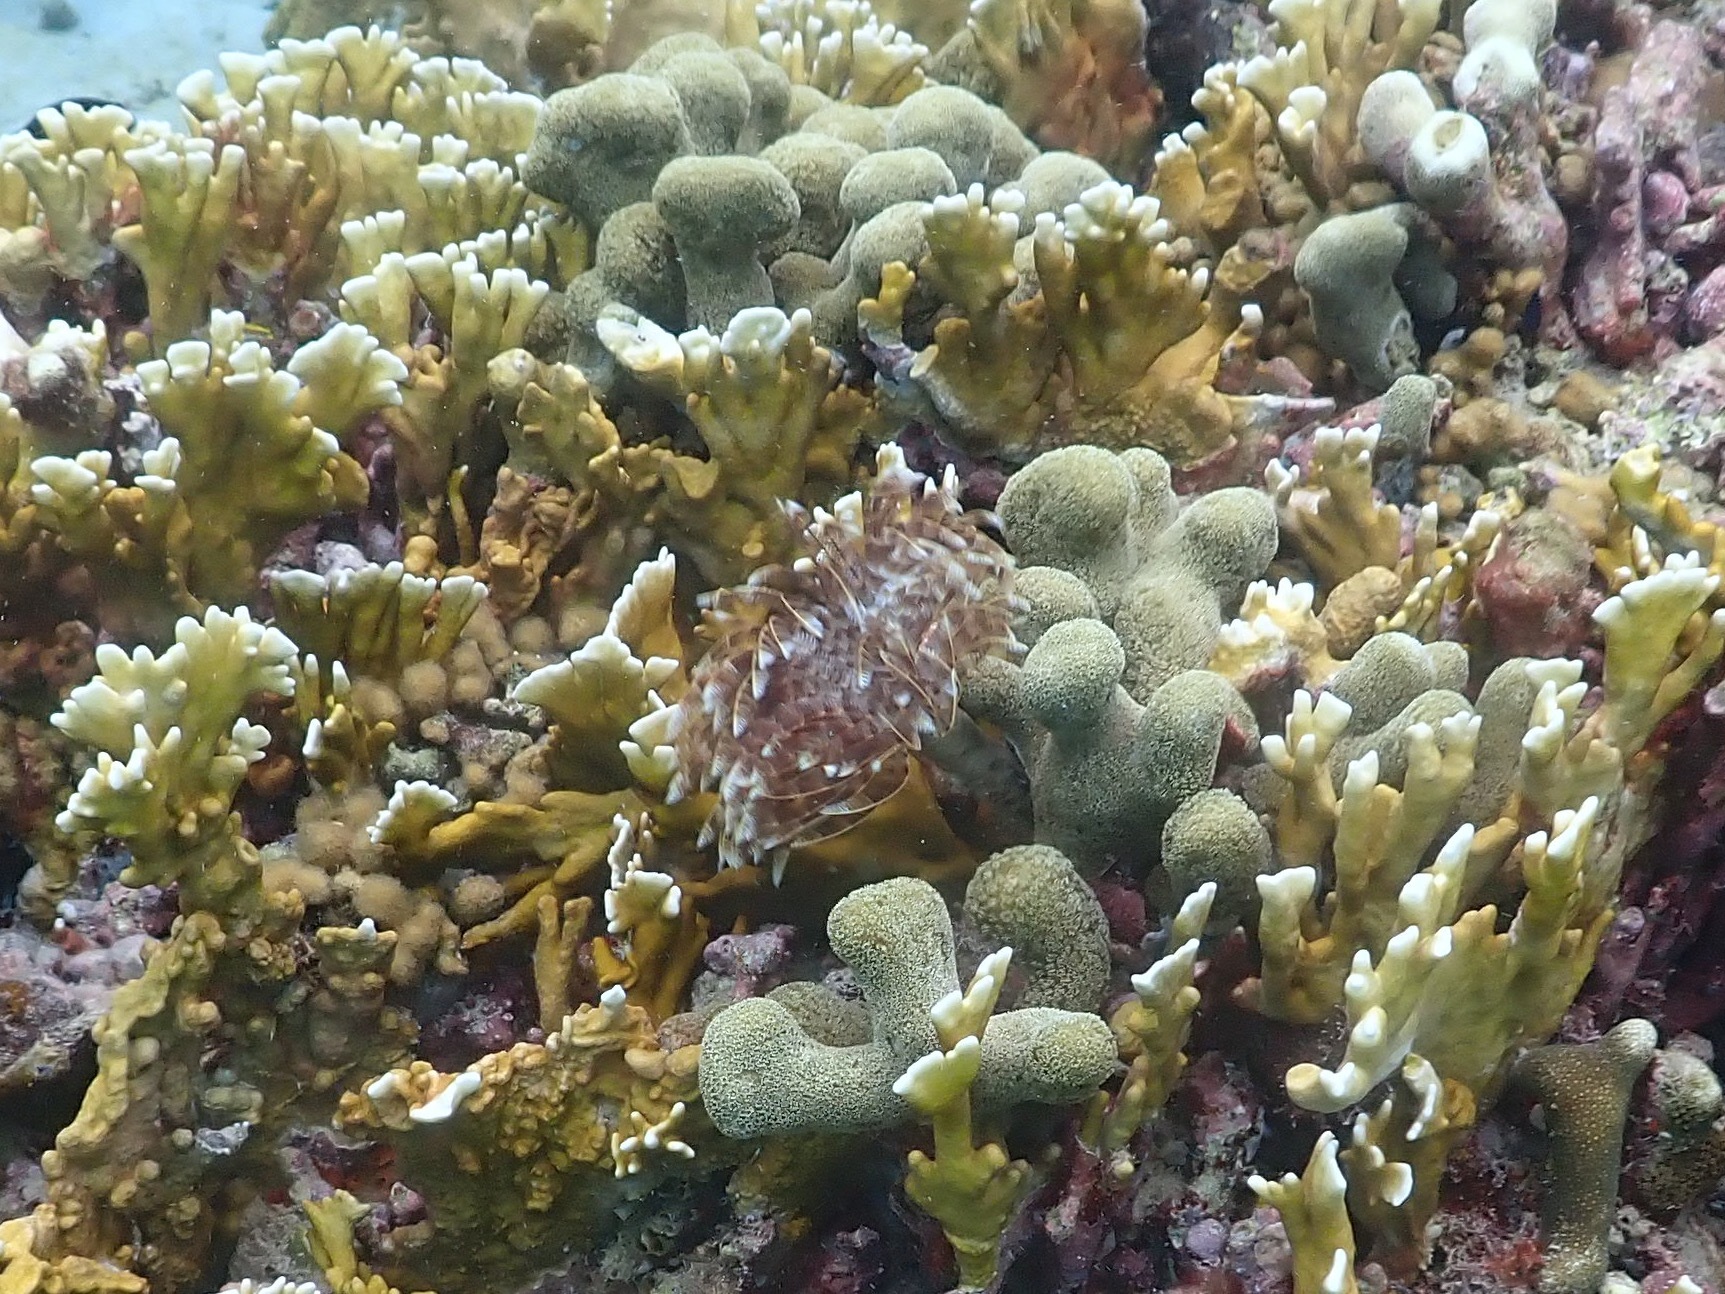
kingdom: Animalia
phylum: Annelida
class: Polychaeta
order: Sabellida
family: Sabellidae
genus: Sabellastarte
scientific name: Sabellastarte magnifica
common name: Giant feather-duster worm
